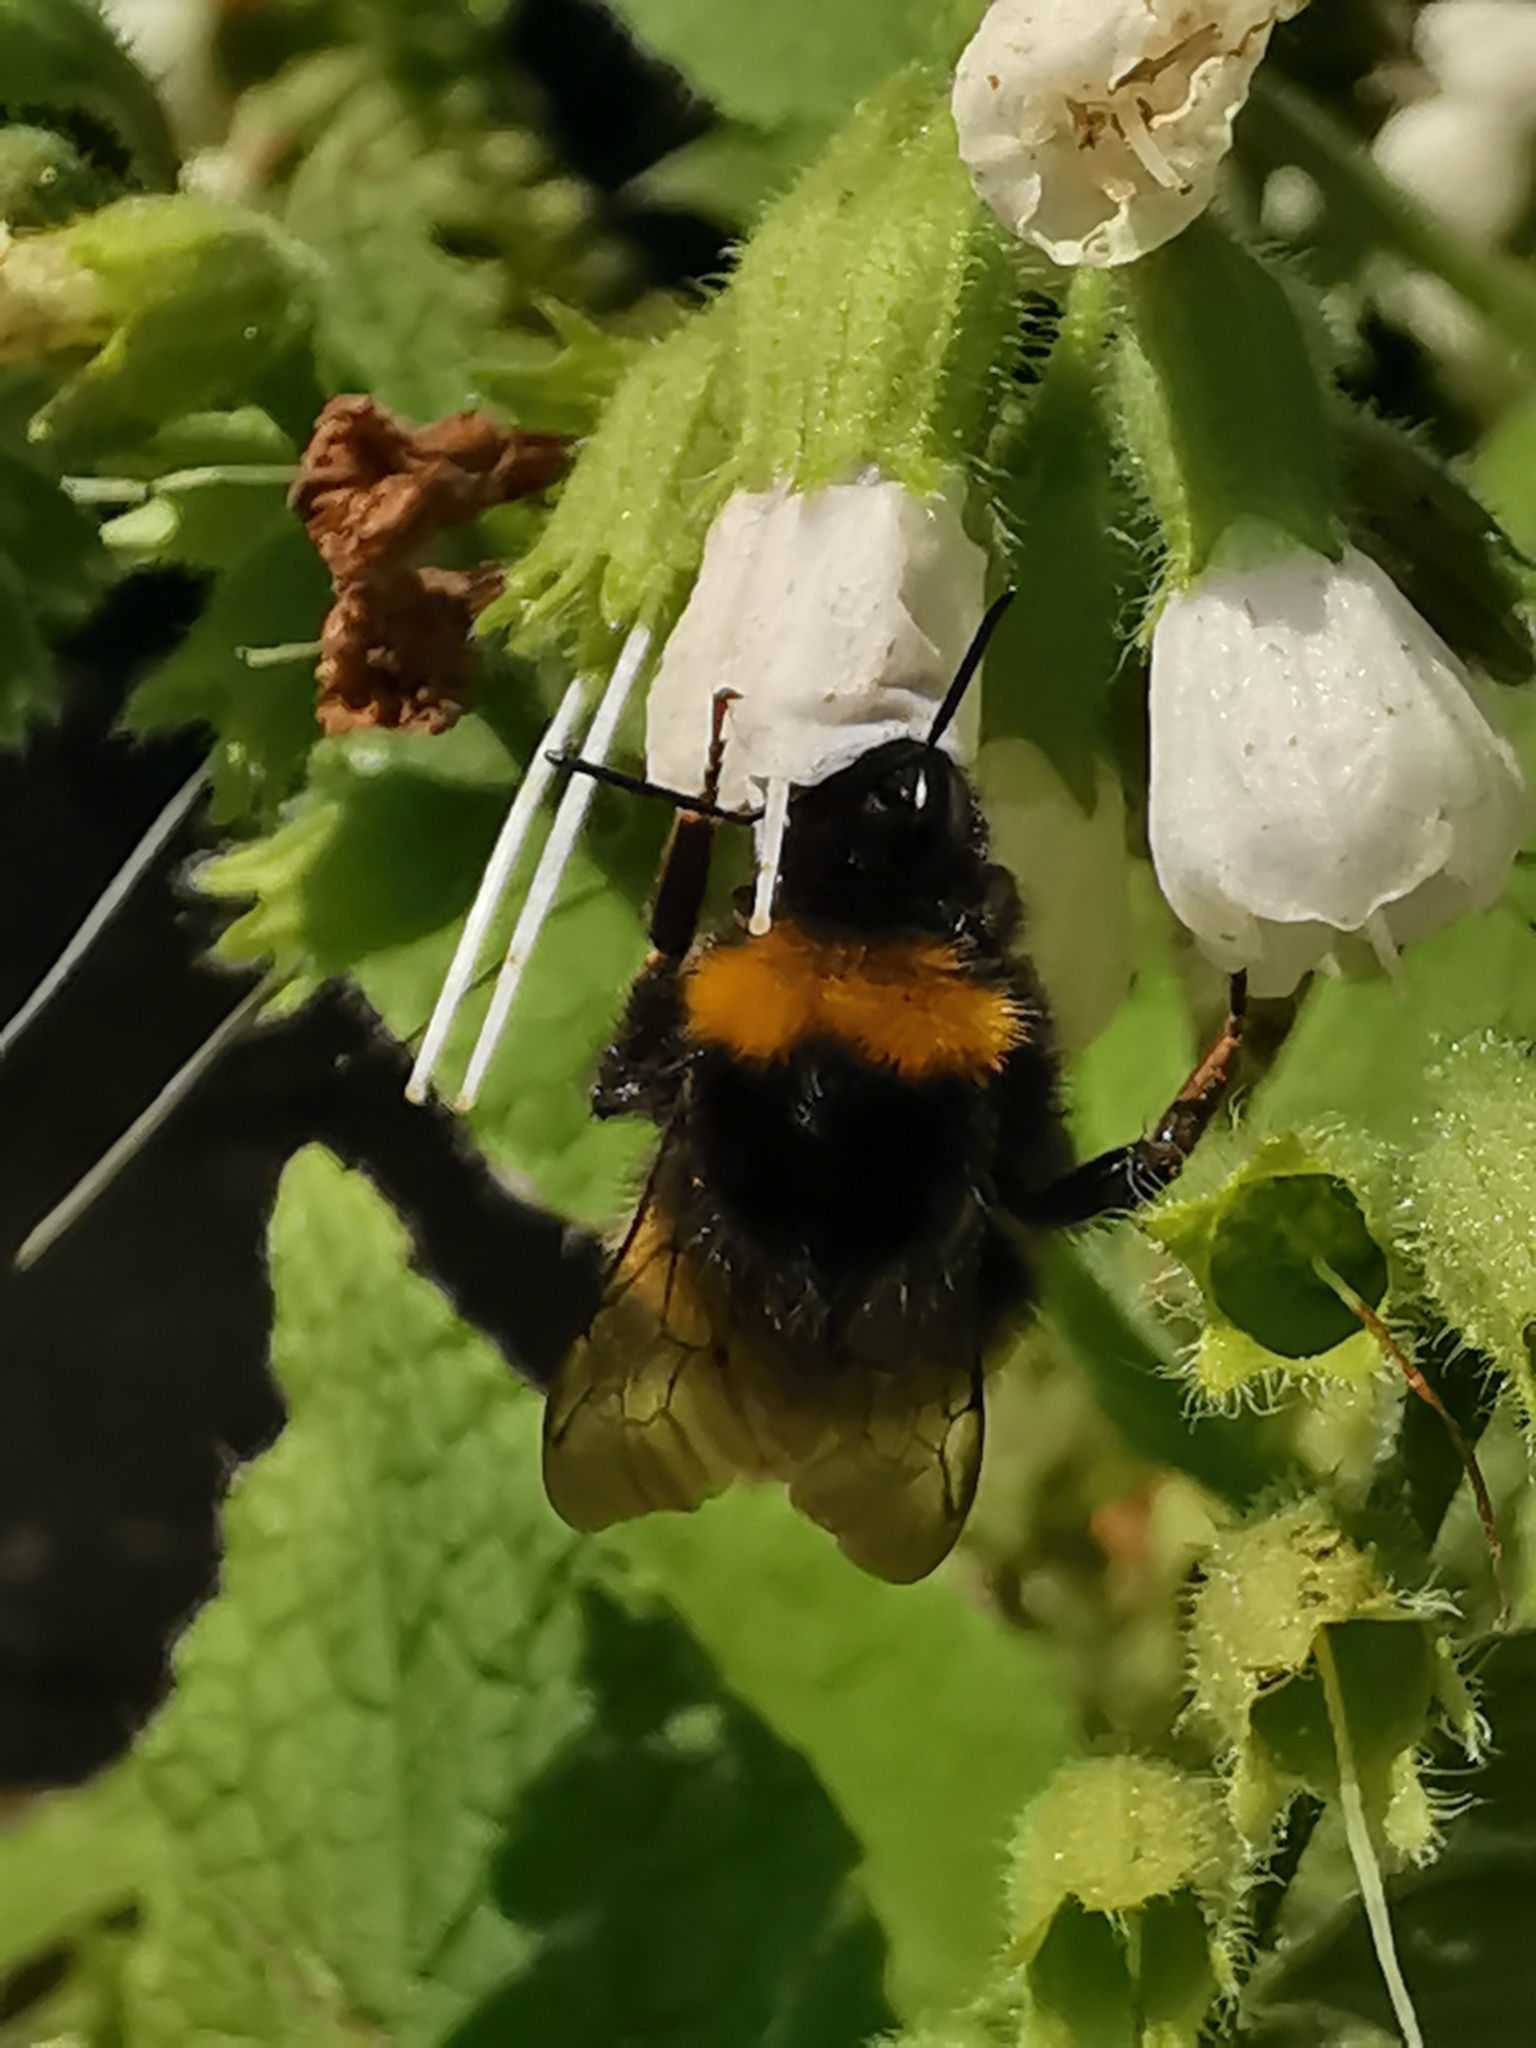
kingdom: Animalia
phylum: Arthropoda
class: Insecta
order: Hymenoptera
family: Apidae
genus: Bombus
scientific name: Bombus pratorum
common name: Early humble-bee
